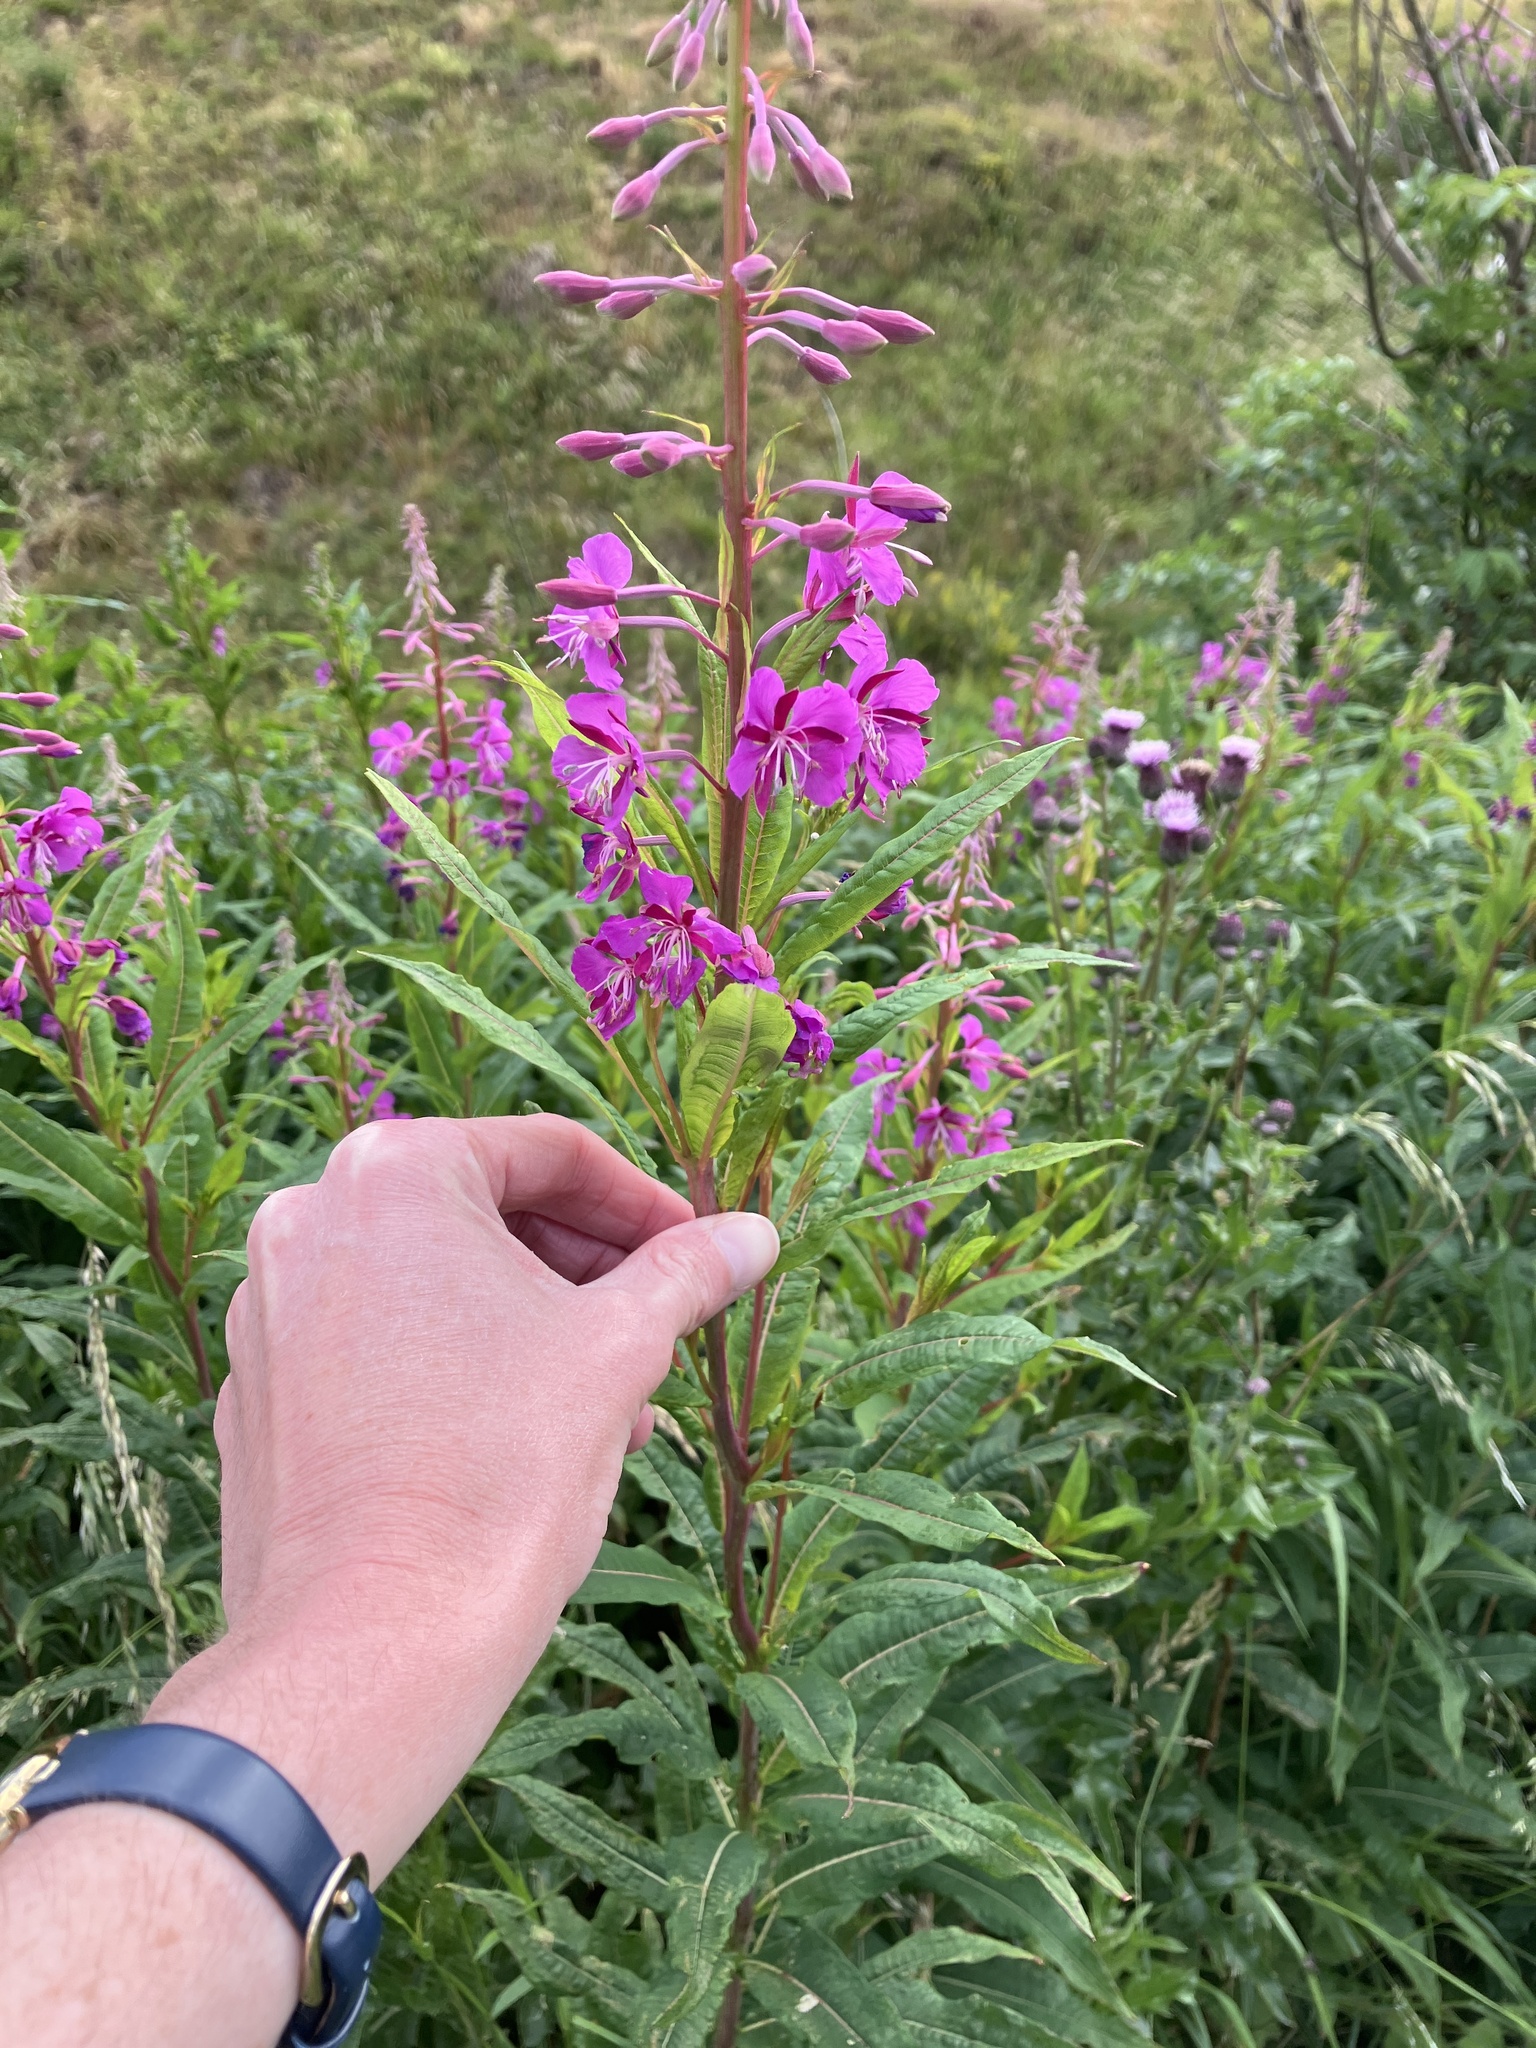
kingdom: Plantae
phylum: Tracheophyta
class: Magnoliopsida
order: Myrtales
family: Onagraceae
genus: Chamaenerion
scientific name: Chamaenerion angustifolium
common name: Fireweed
